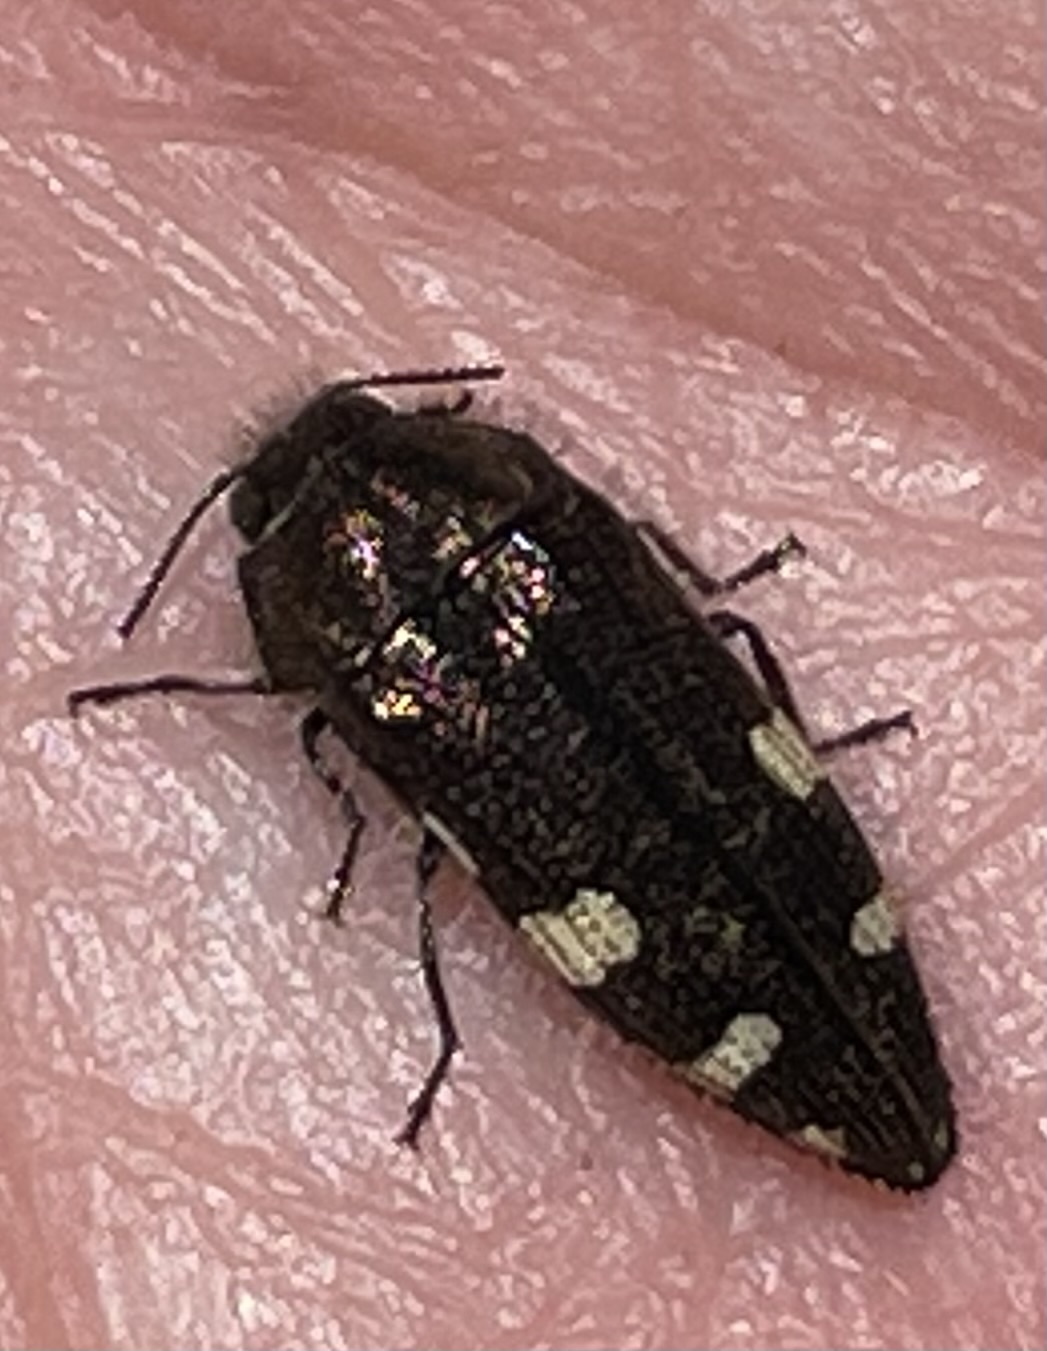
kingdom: Animalia
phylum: Arthropoda
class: Insecta
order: Coleoptera
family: Buprestidae
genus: Acmaeodera
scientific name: Acmaeodera prorsa
